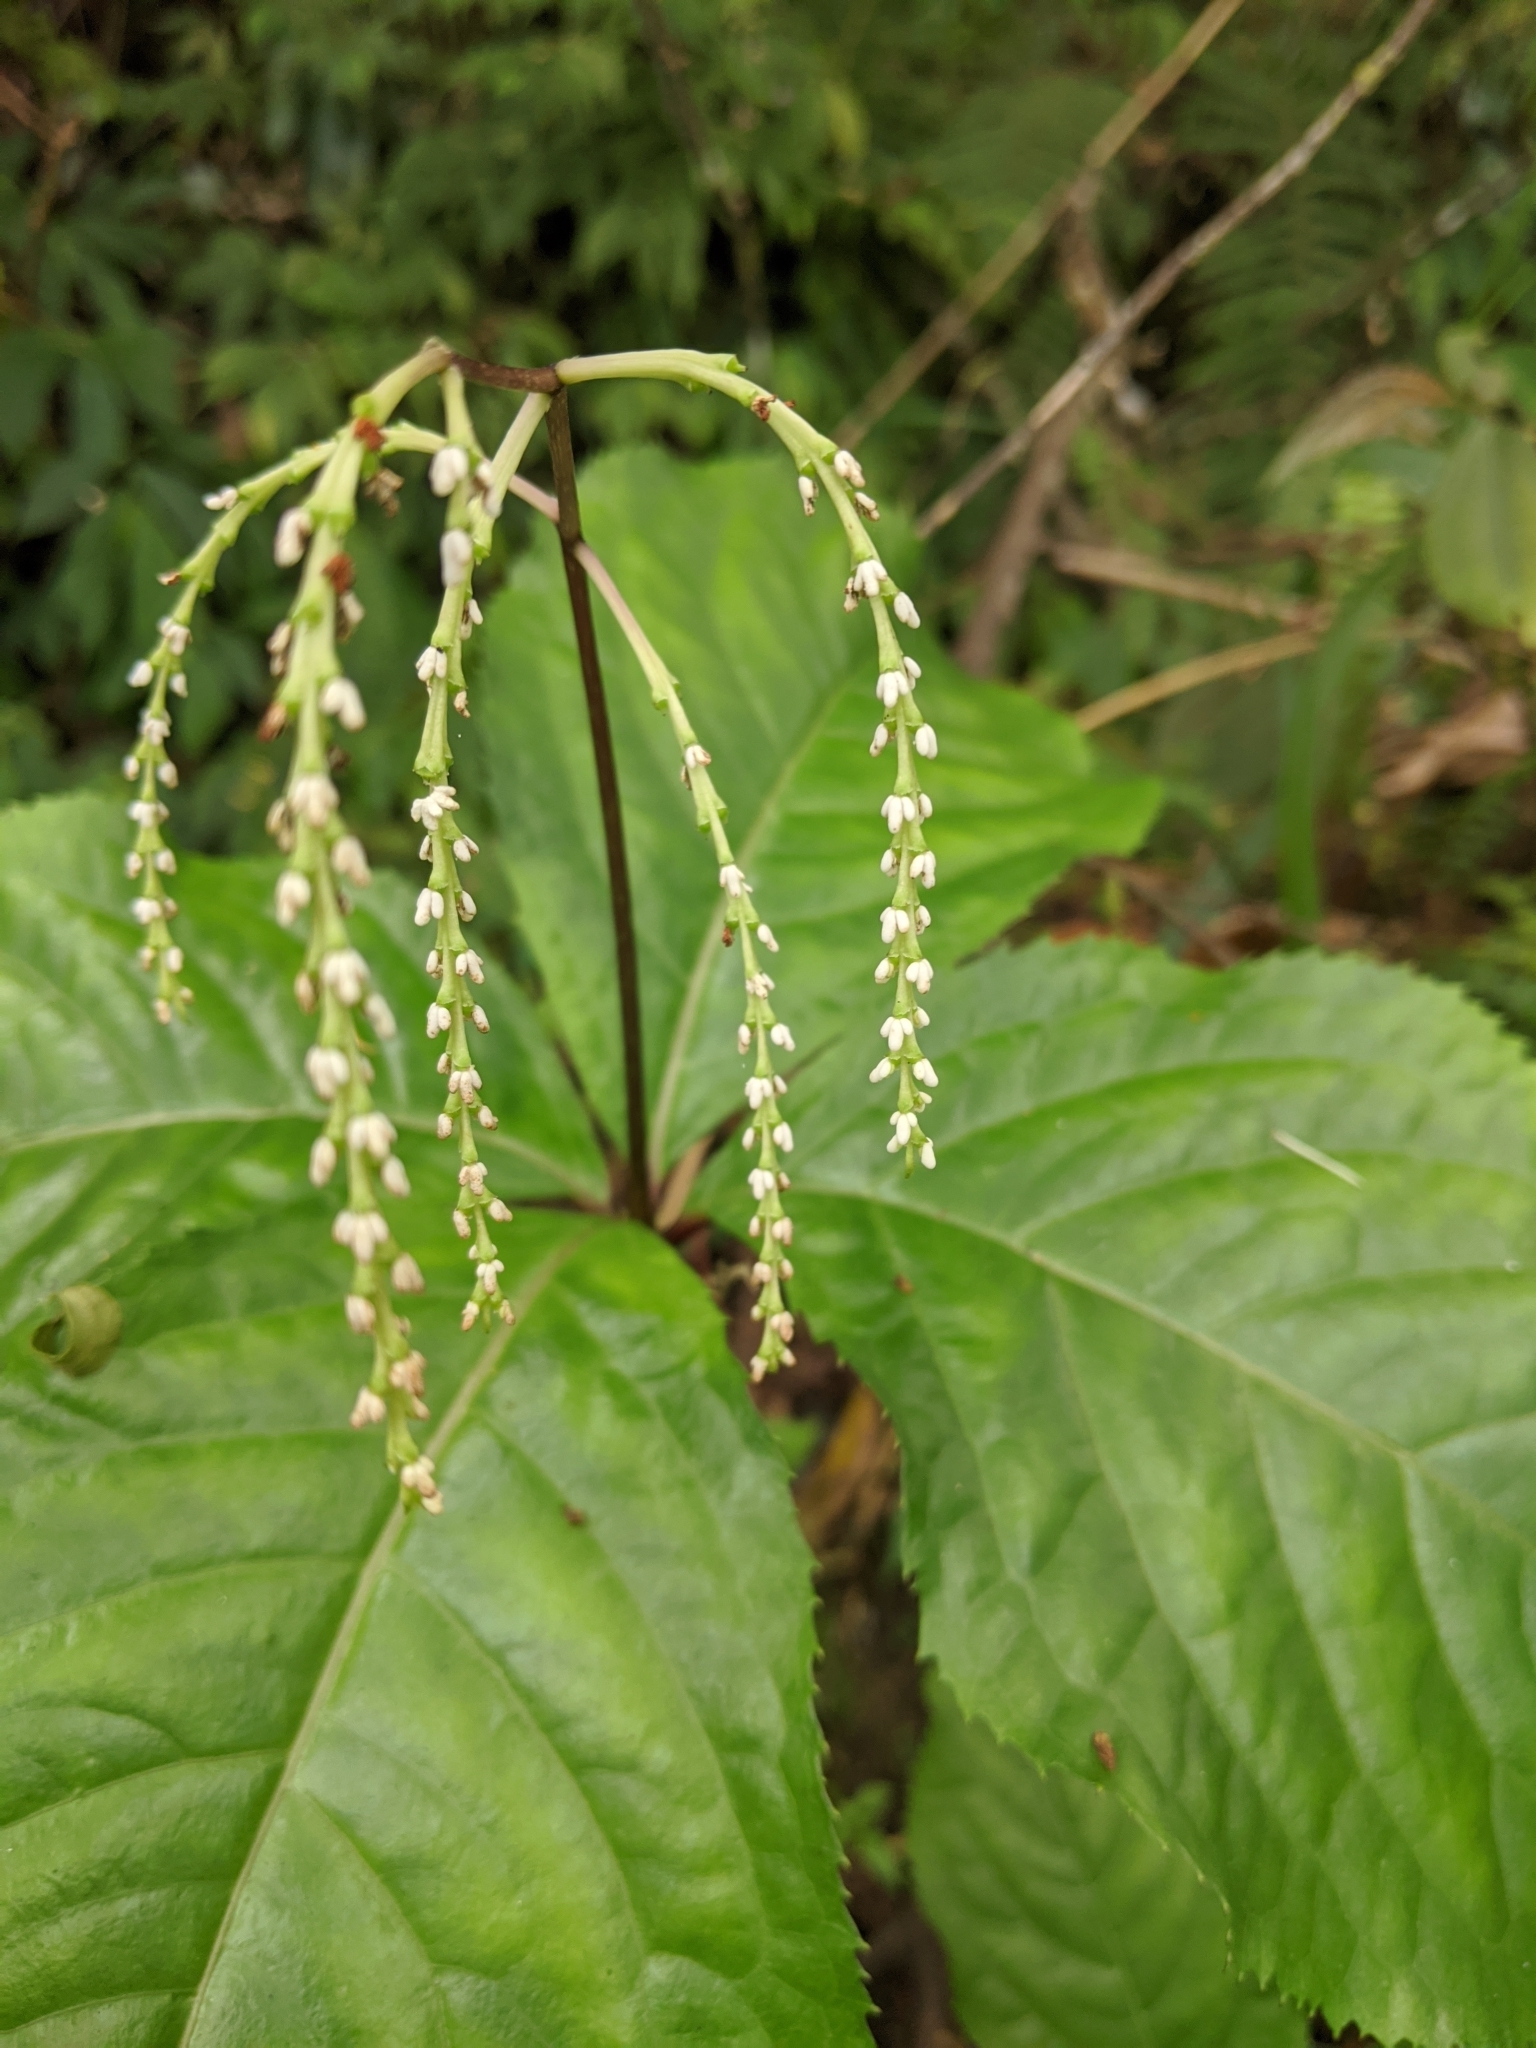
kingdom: Plantae
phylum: Tracheophyta
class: Magnoliopsida
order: Chloranthales
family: Chloranthaceae
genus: Chloranthus
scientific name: Chloranthus oldhamii
